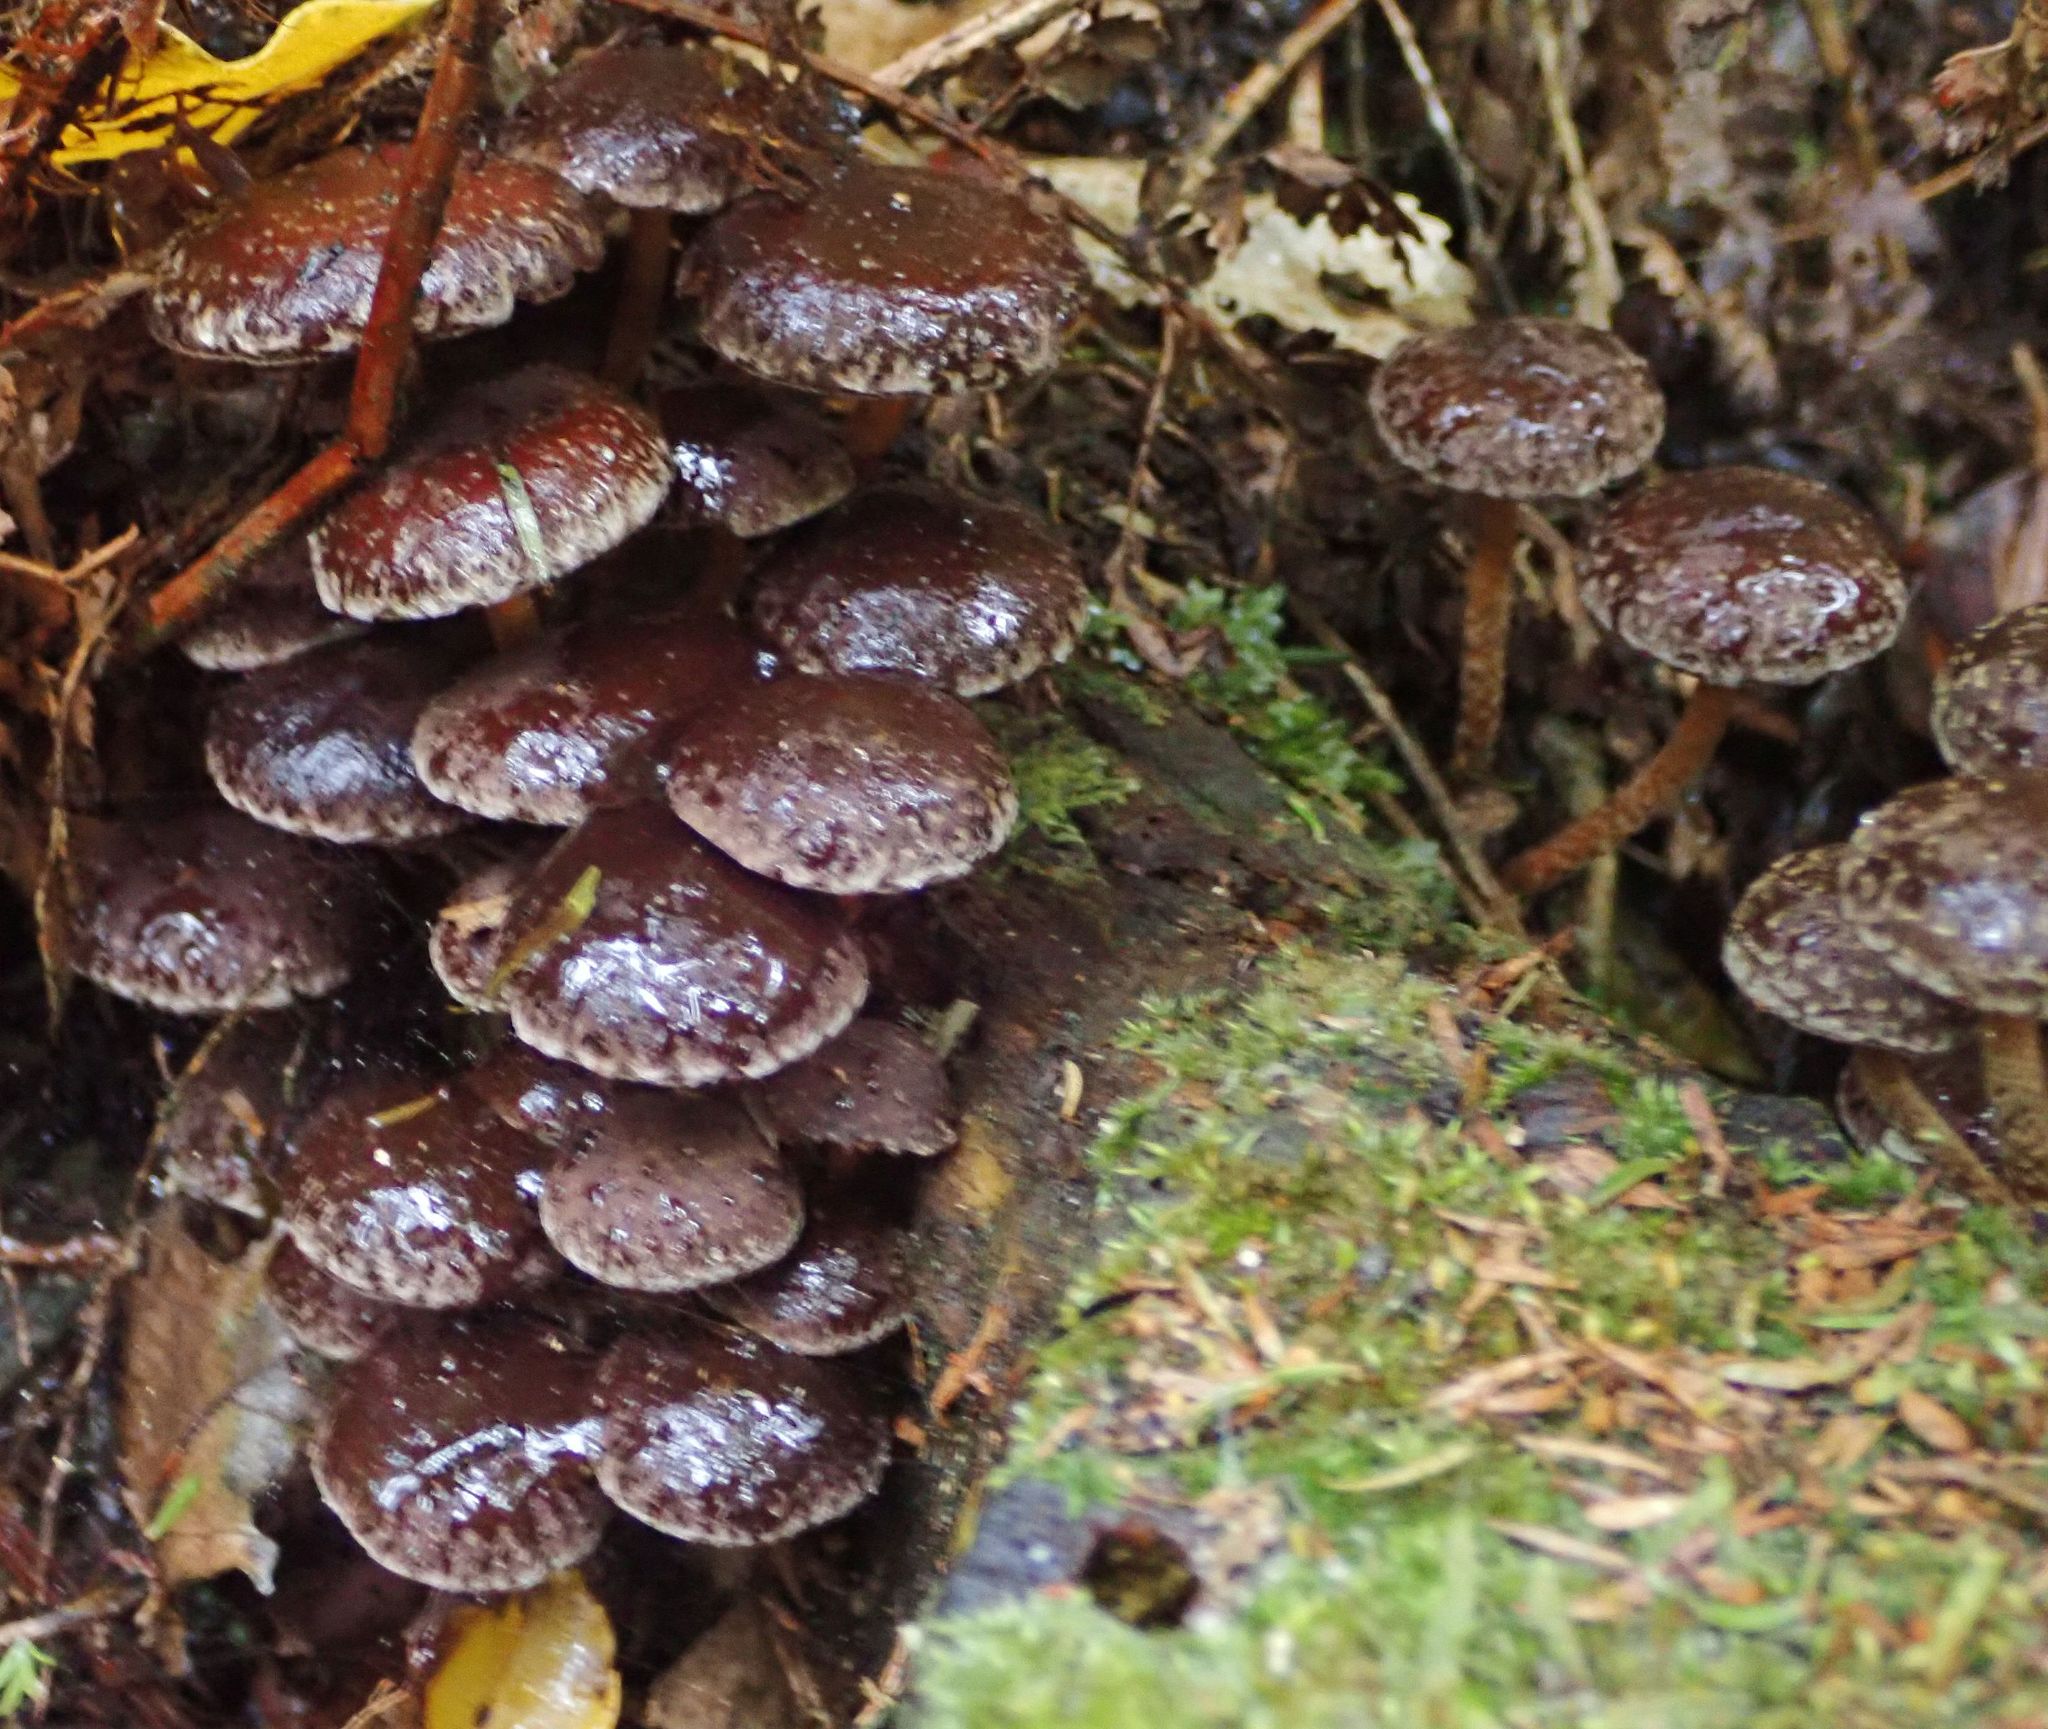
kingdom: Fungi
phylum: Basidiomycota
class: Agaricomycetes
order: Agaricales
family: Strophariaceae
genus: Hypholoma
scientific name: Hypholoma brunneum
